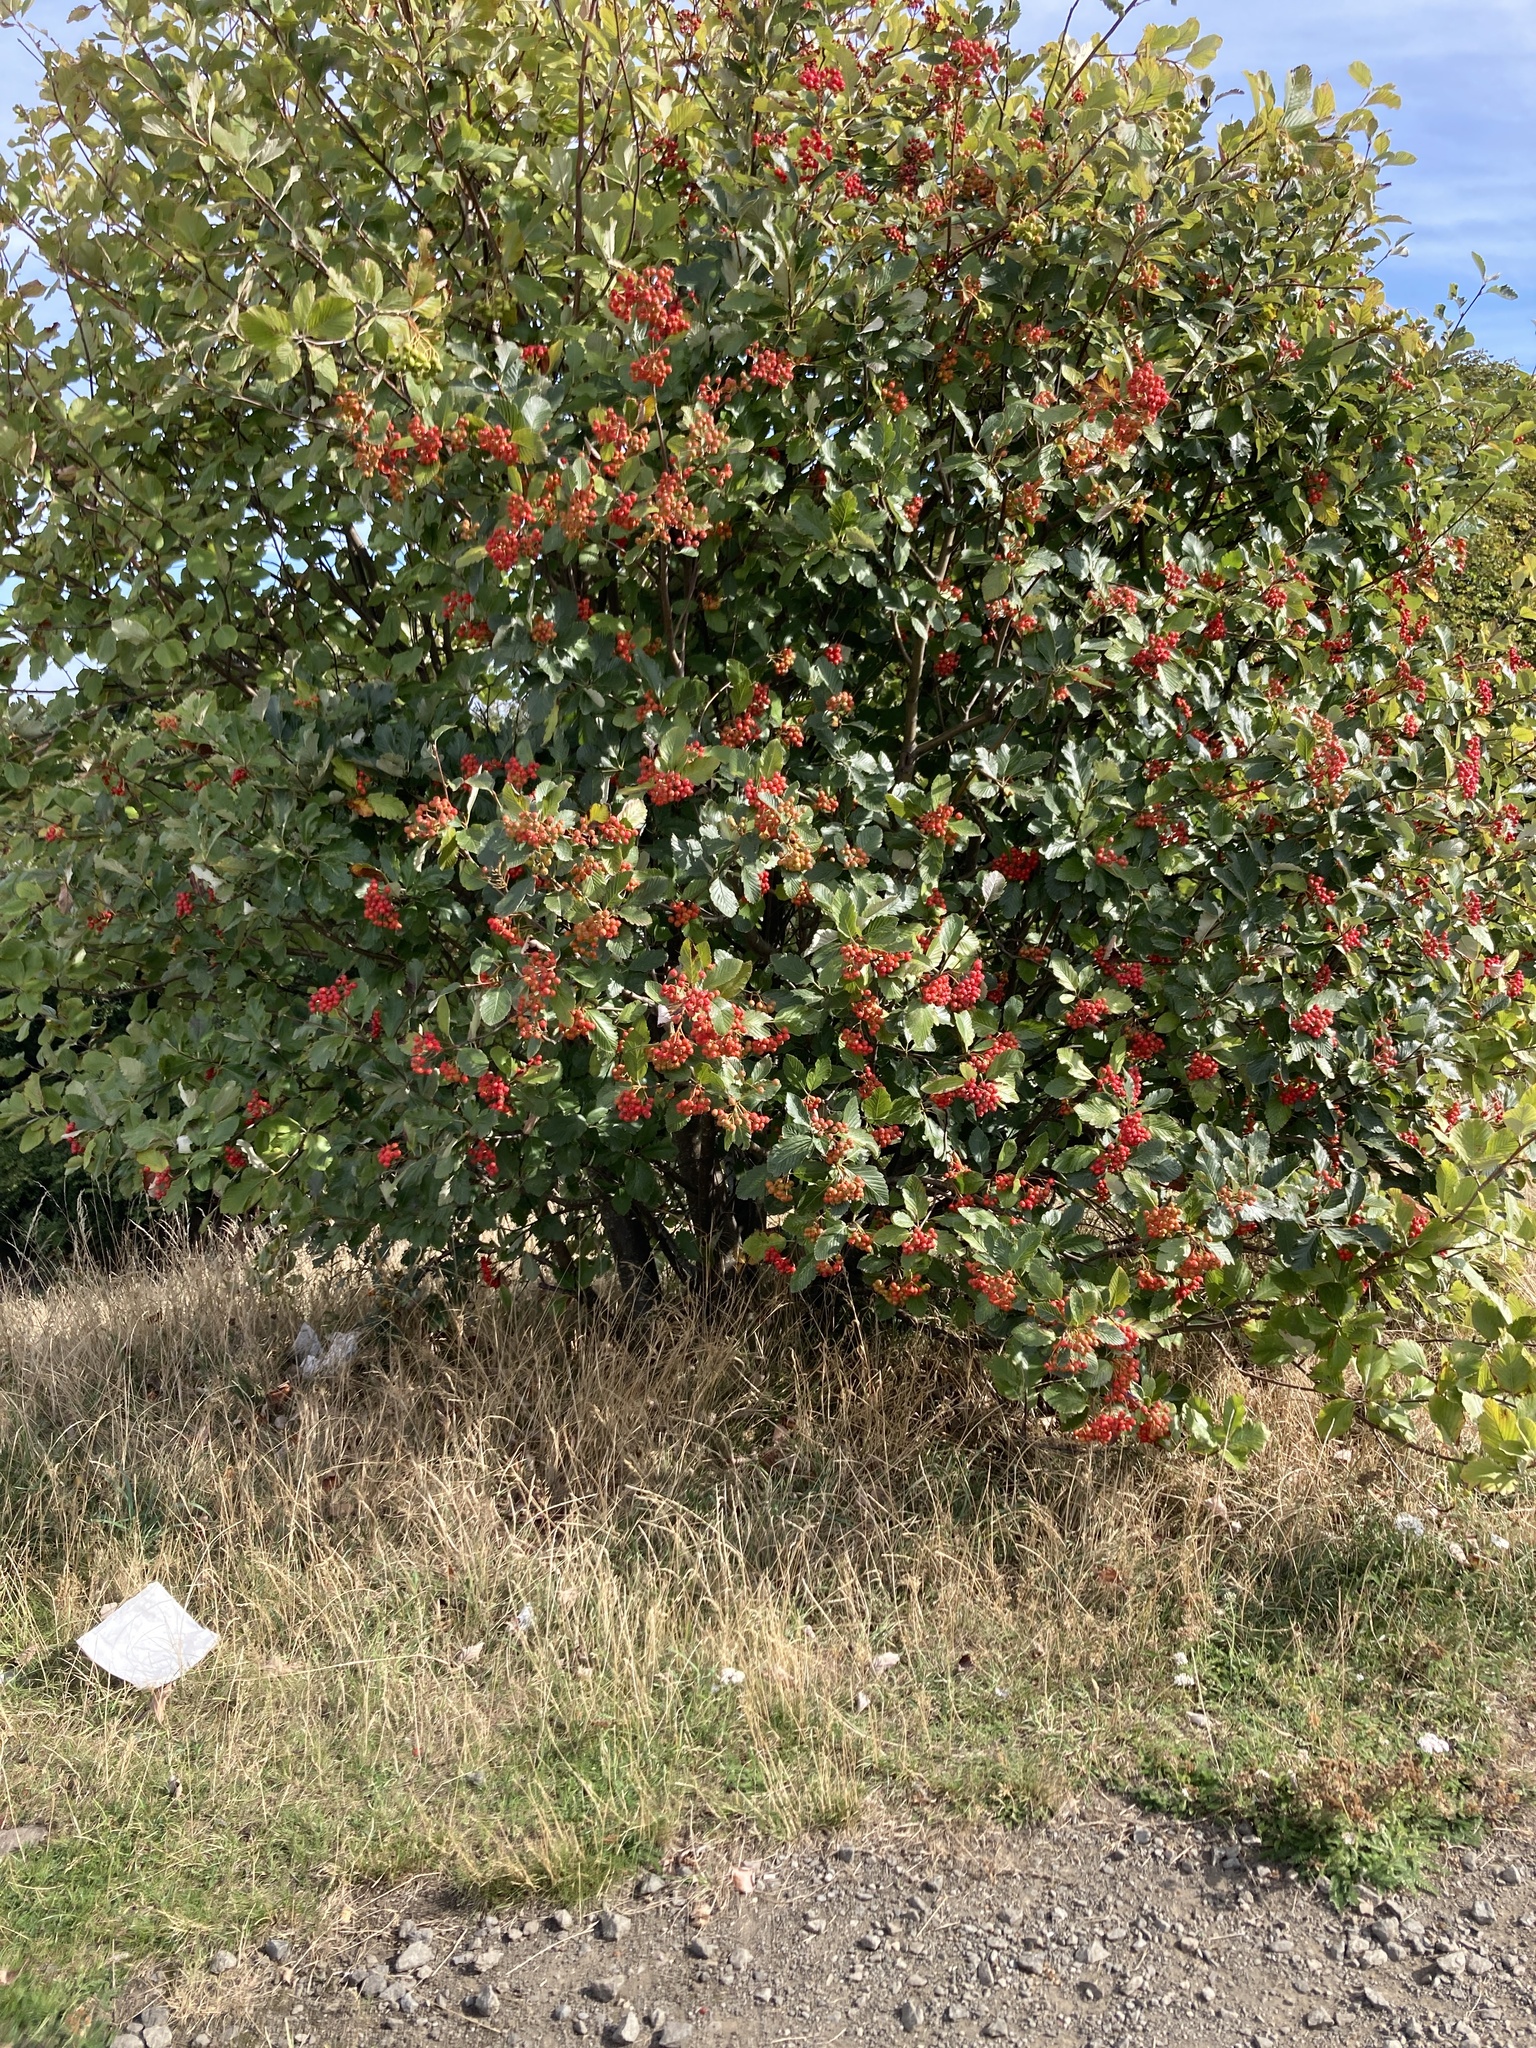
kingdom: Plantae
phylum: Tracheophyta
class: Magnoliopsida
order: Rosales
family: Rosaceae
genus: Scandosorbus
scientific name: Scandosorbus intermedia
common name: Swedish whitebeam
